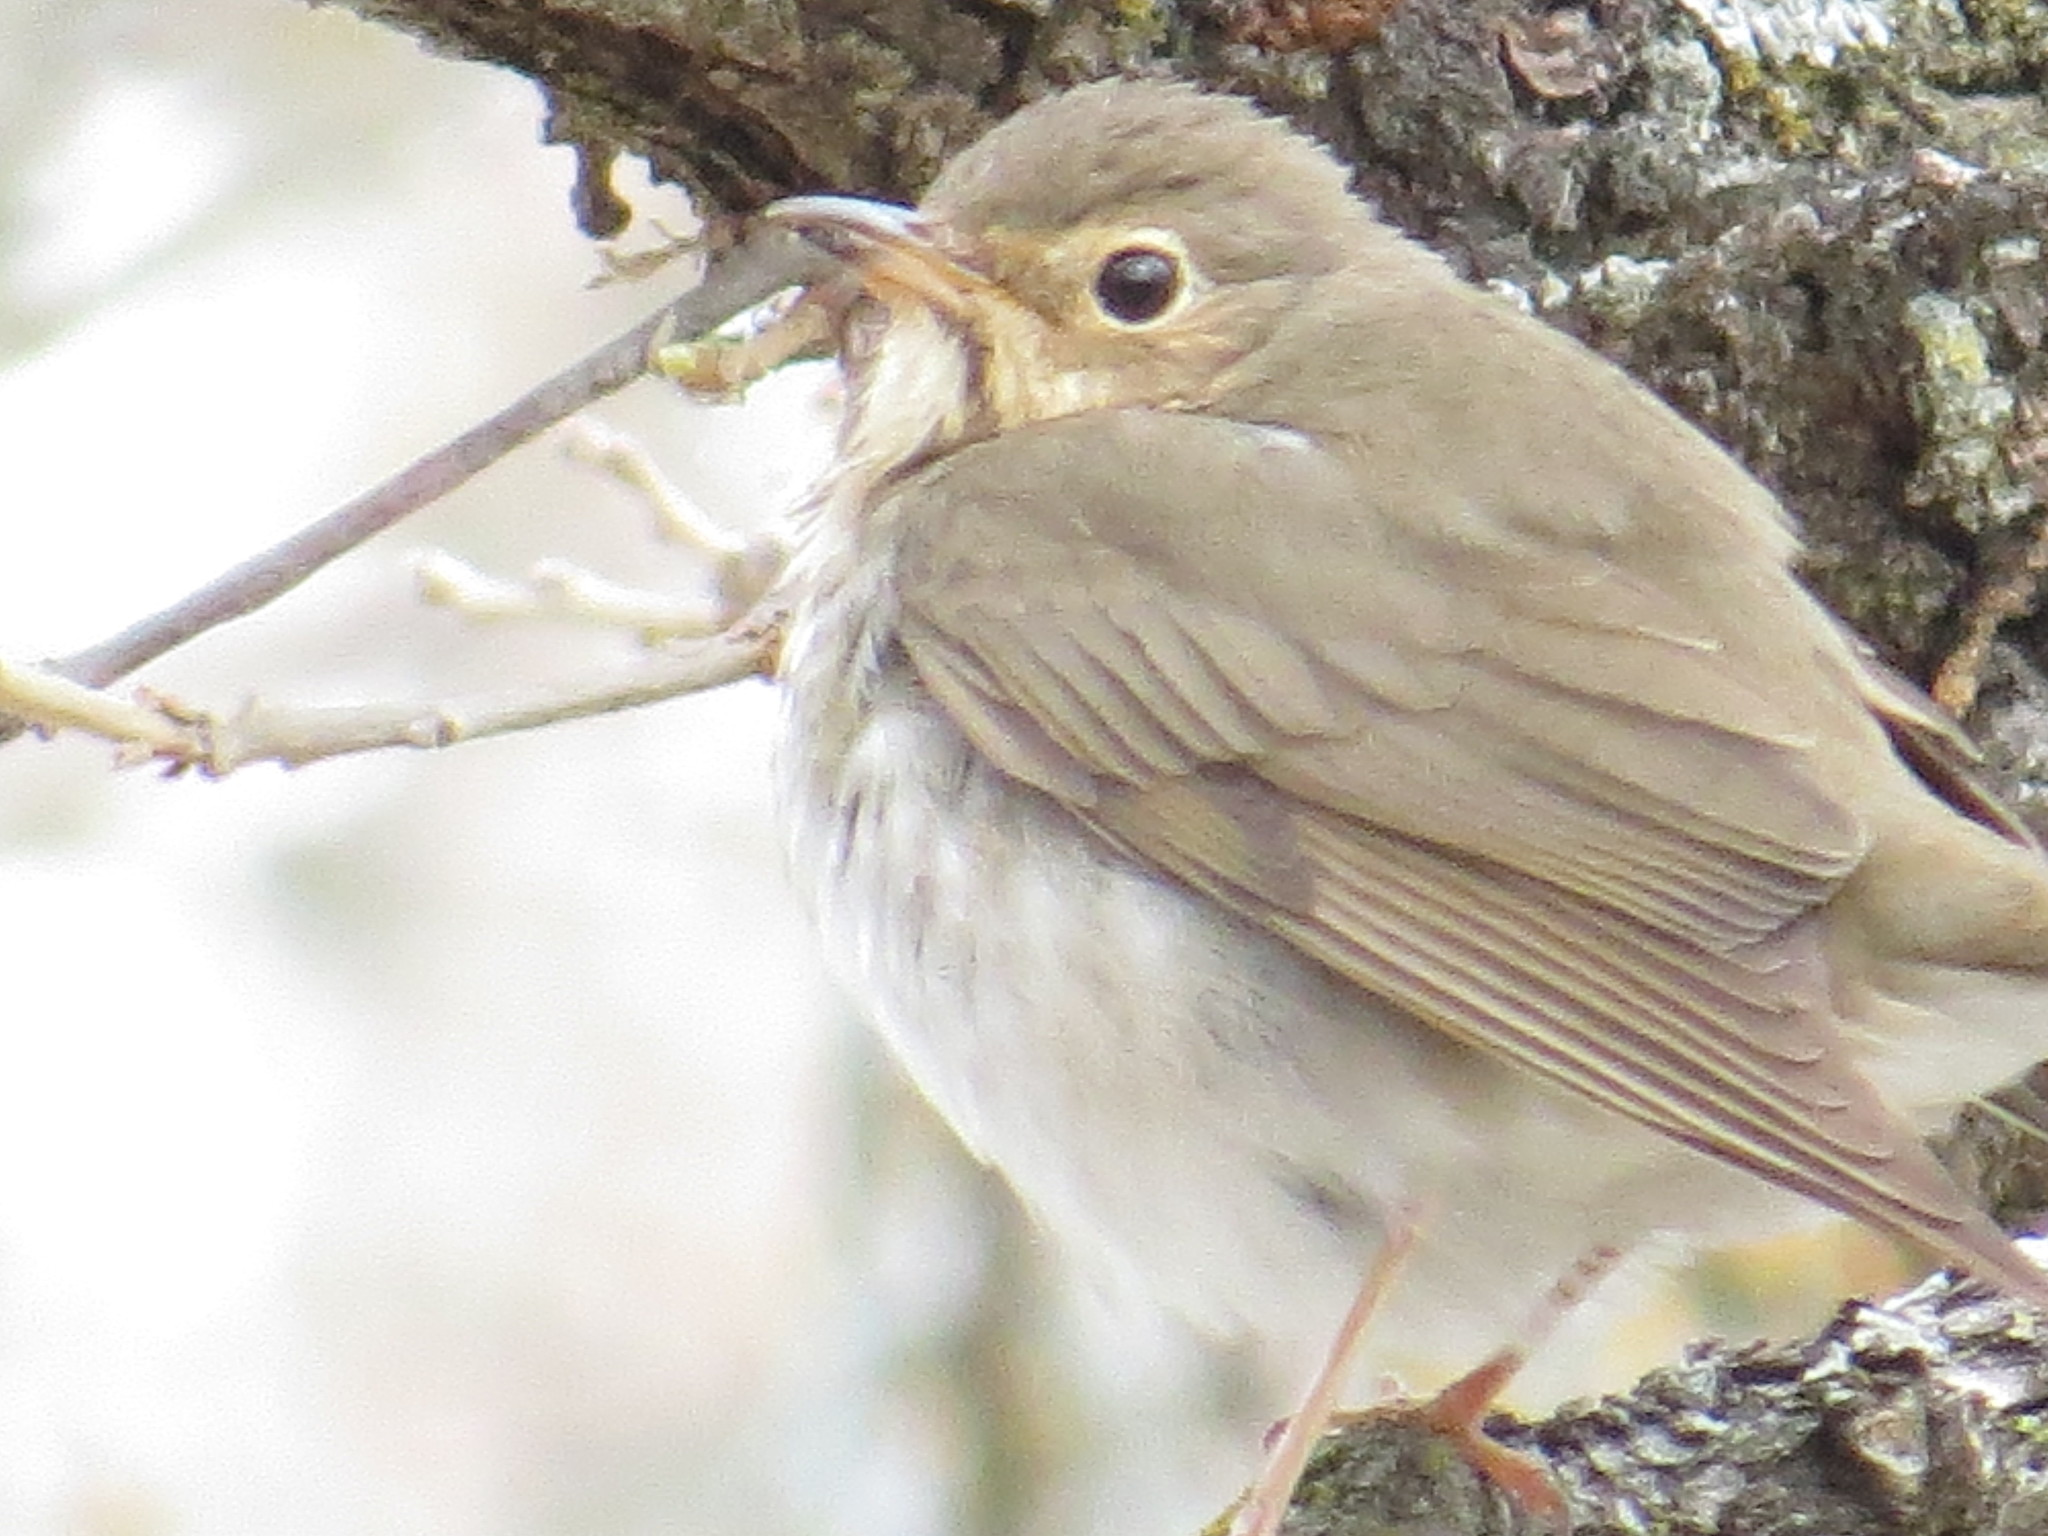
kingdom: Animalia
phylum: Chordata
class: Aves
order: Passeriformes
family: Turdidae
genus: Catharus
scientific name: Catharus ustulatus
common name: Swainson's thrush
